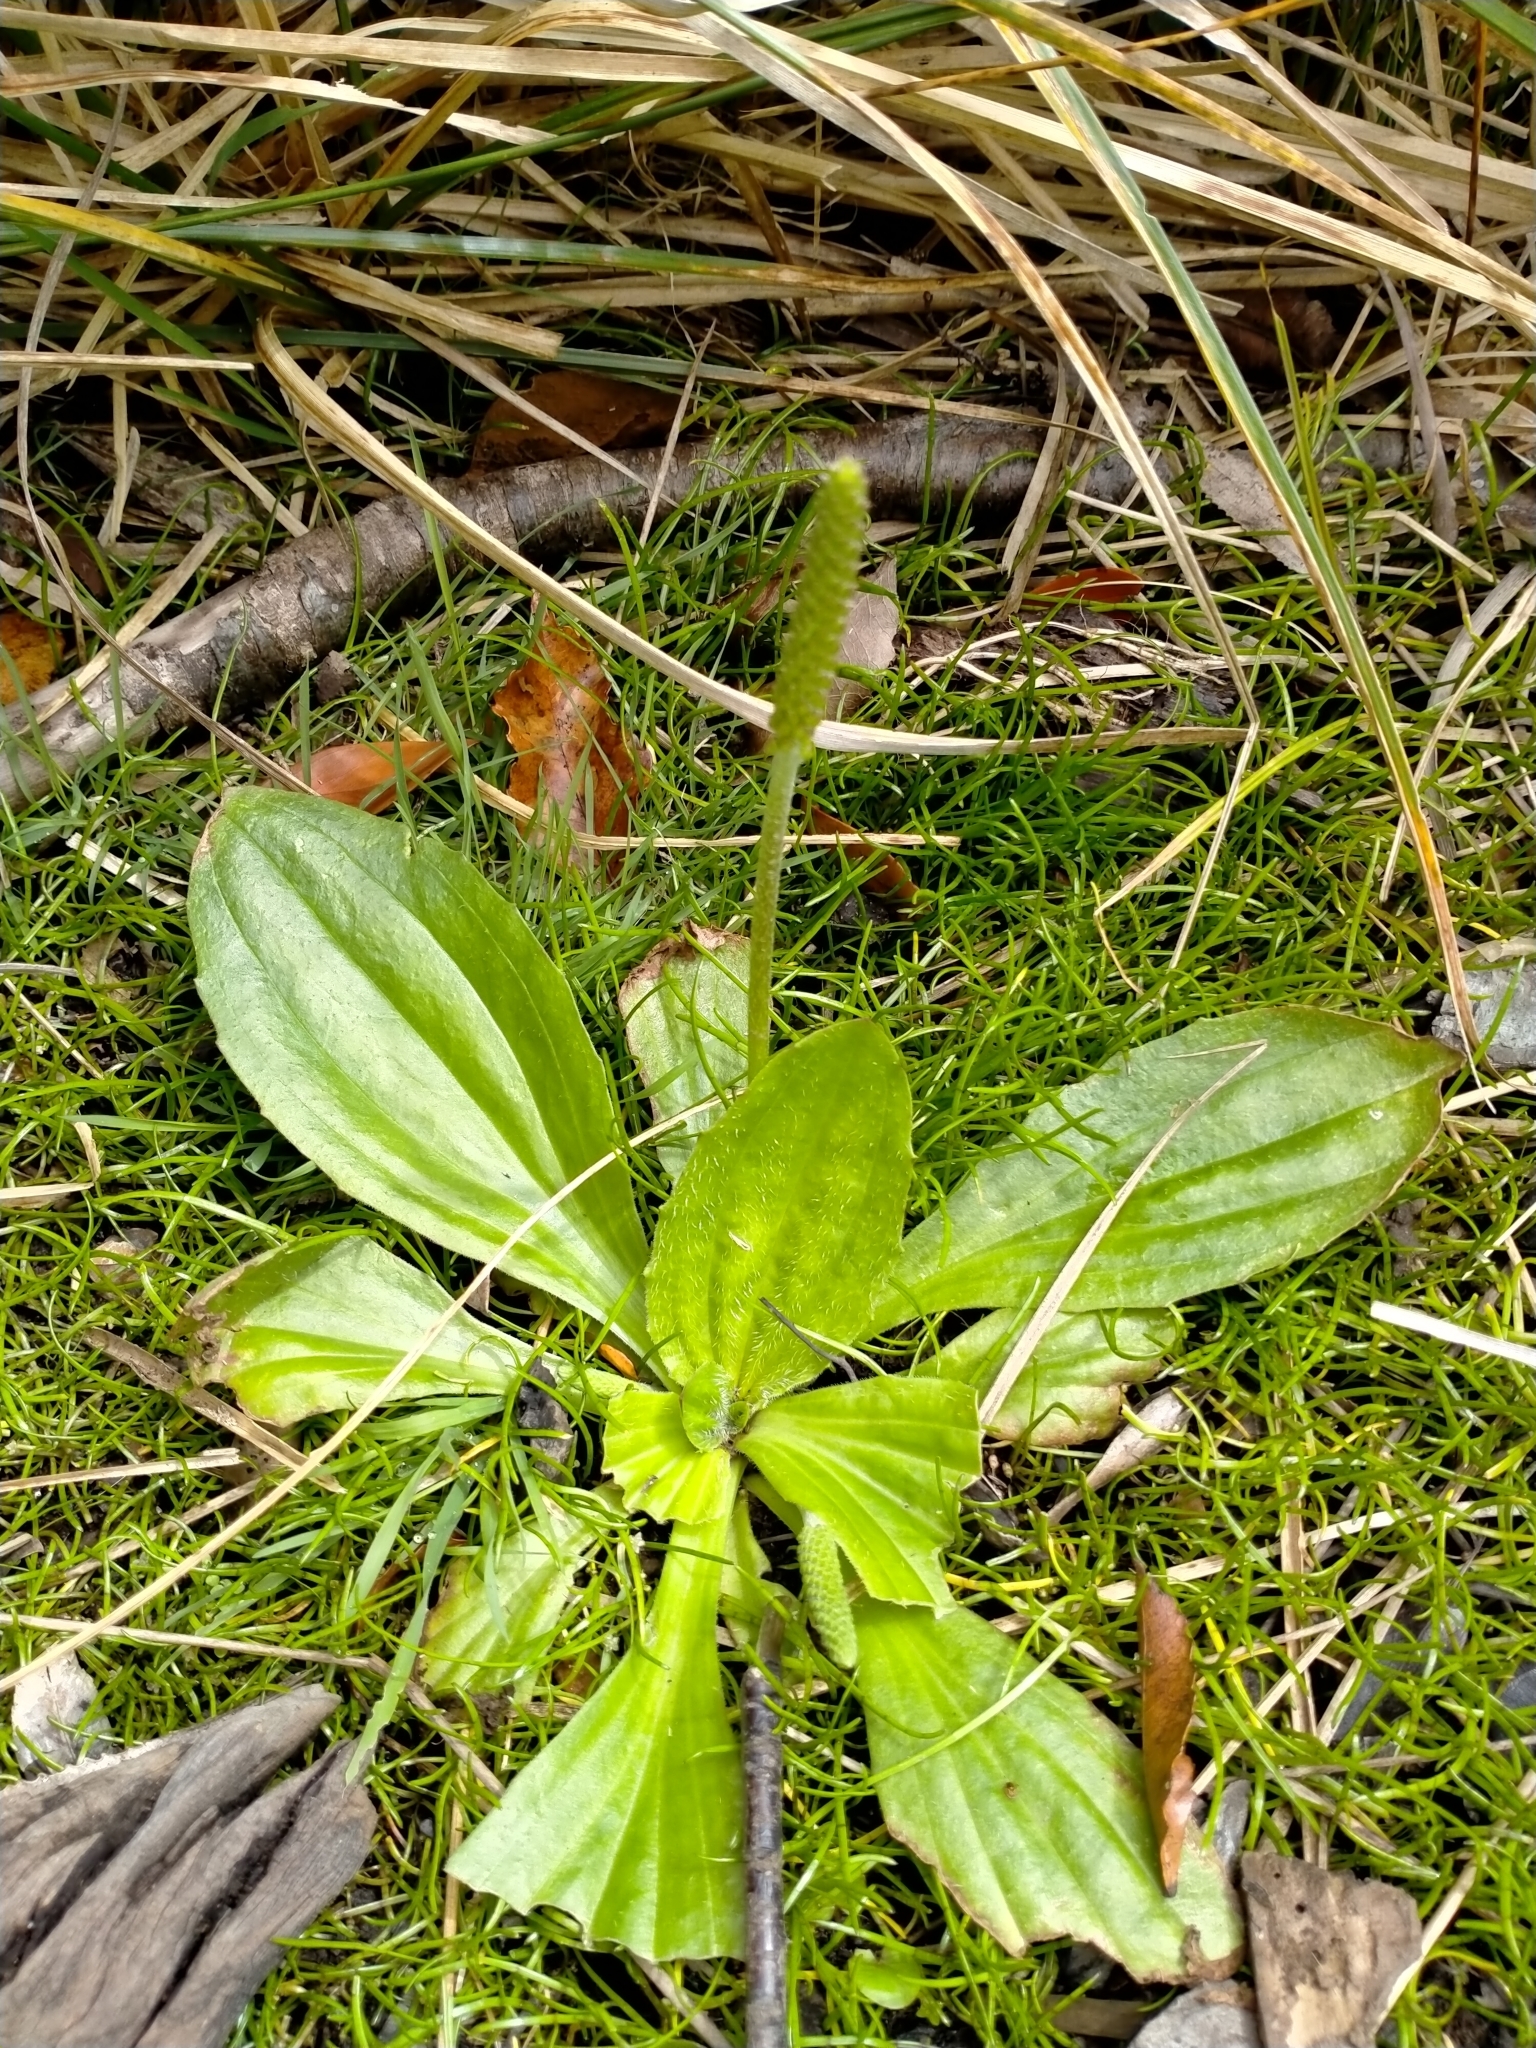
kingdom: Plantae
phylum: Tracheophyta
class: Magnoliopsida
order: Lamiales
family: Plantaginaceae
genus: Plantago
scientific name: Plantago australis
